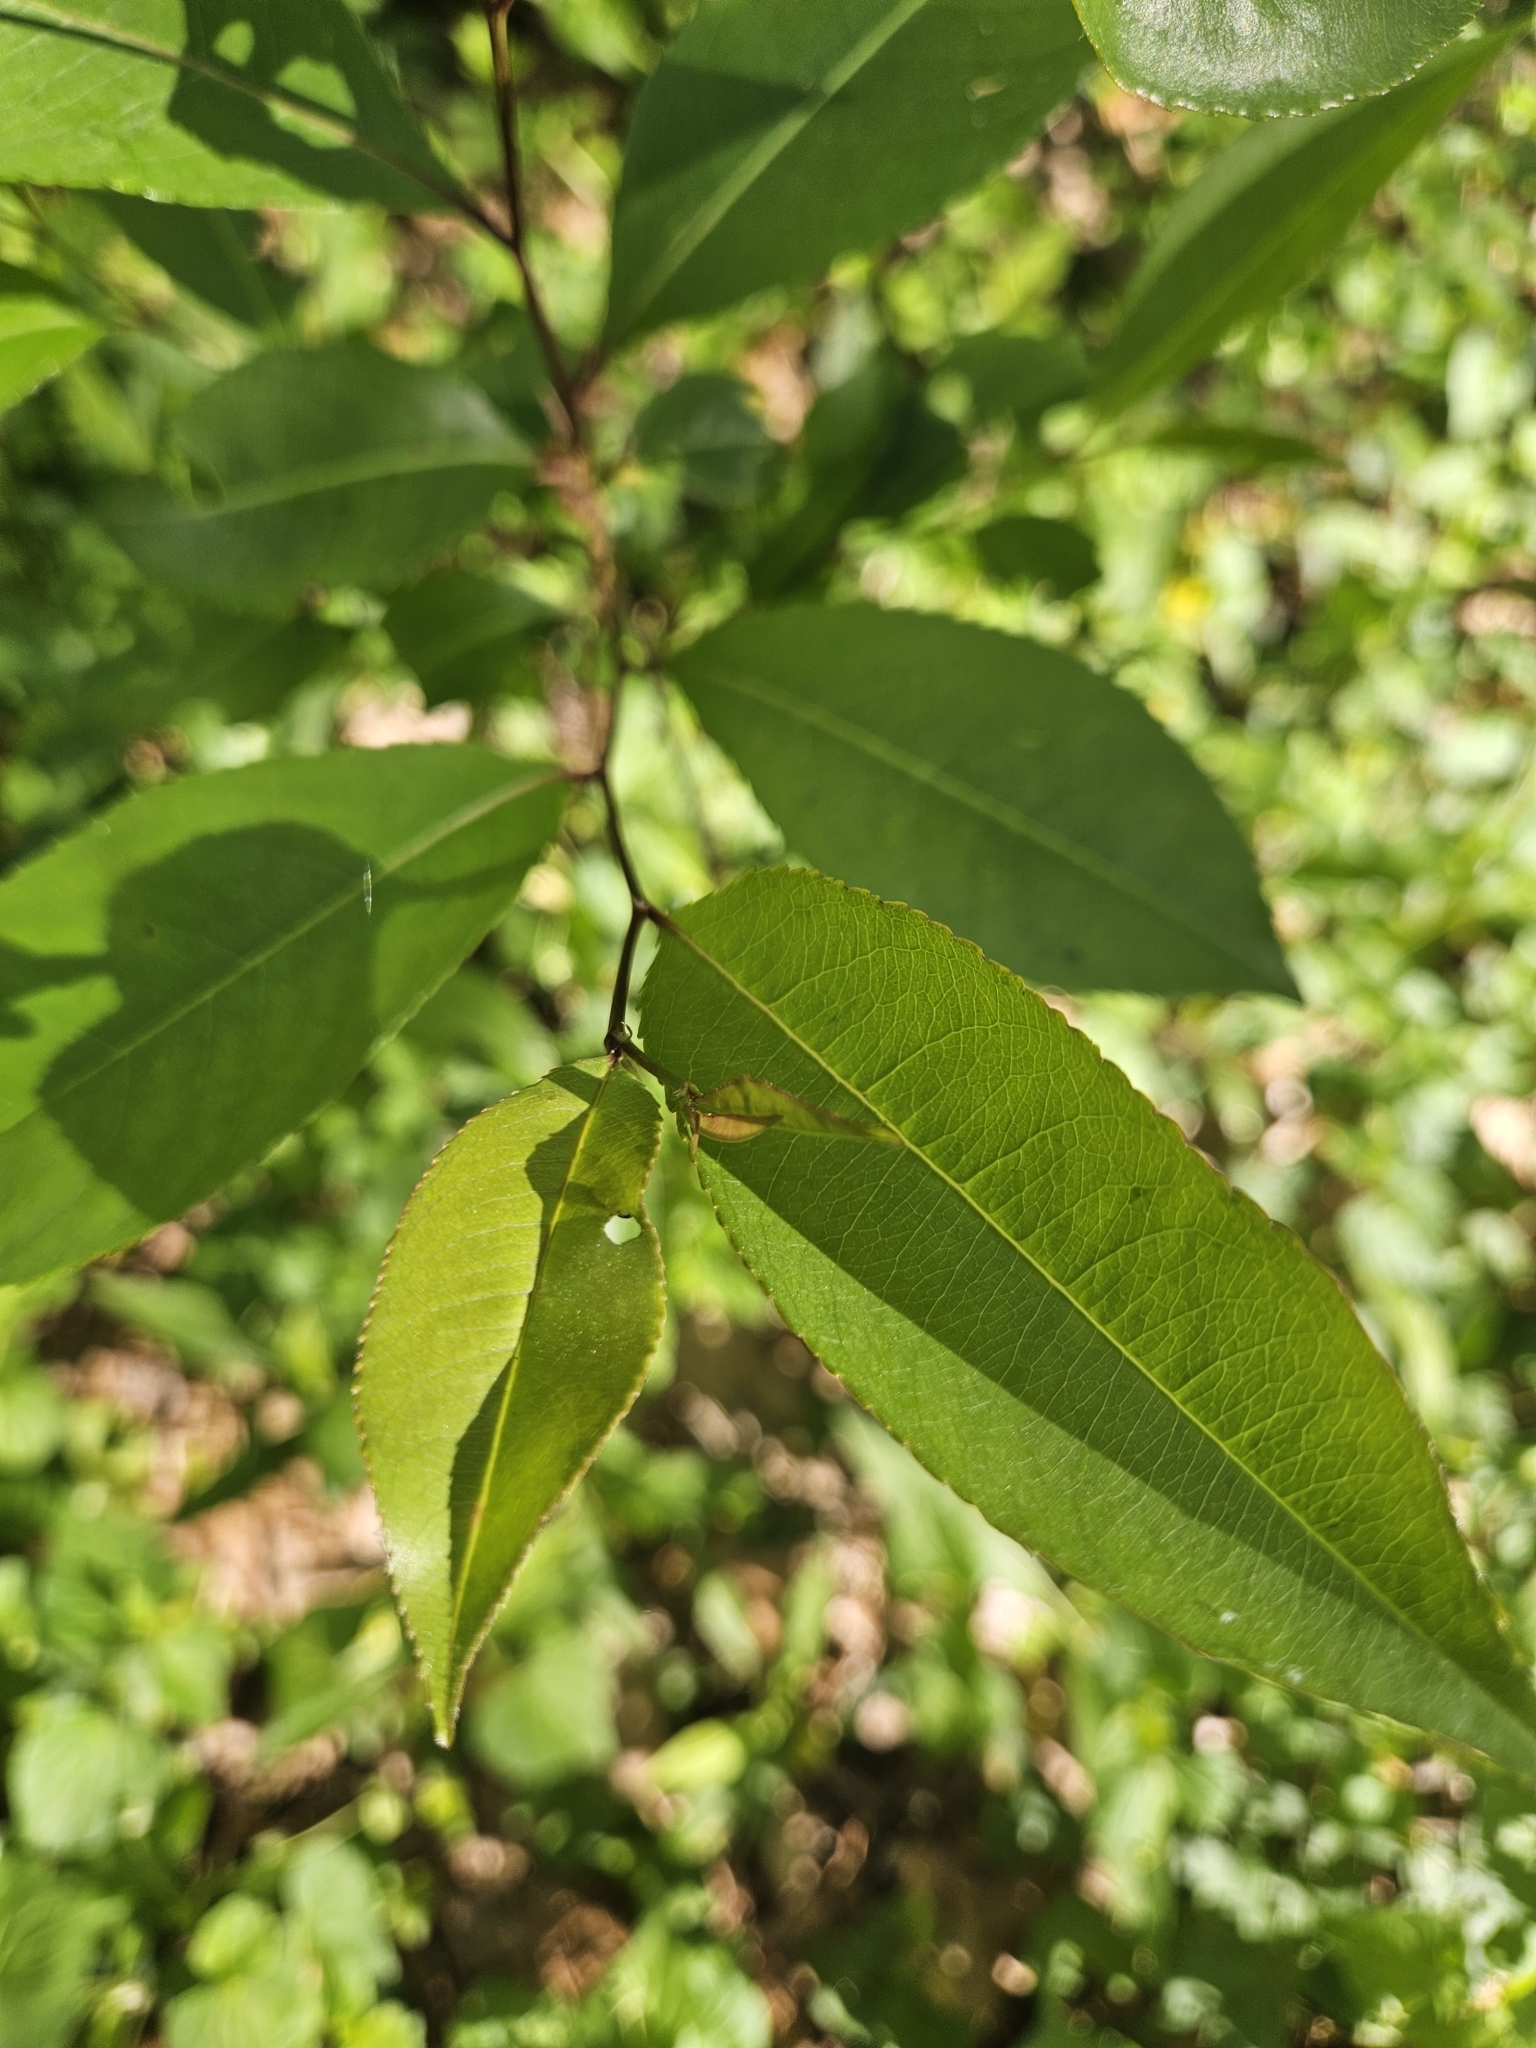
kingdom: Plantae
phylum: Tracheophyta
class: Magnoliopsida
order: Rosales
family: Rosaceae
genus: Prunus
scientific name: Prunus serotina
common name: Black cherry
